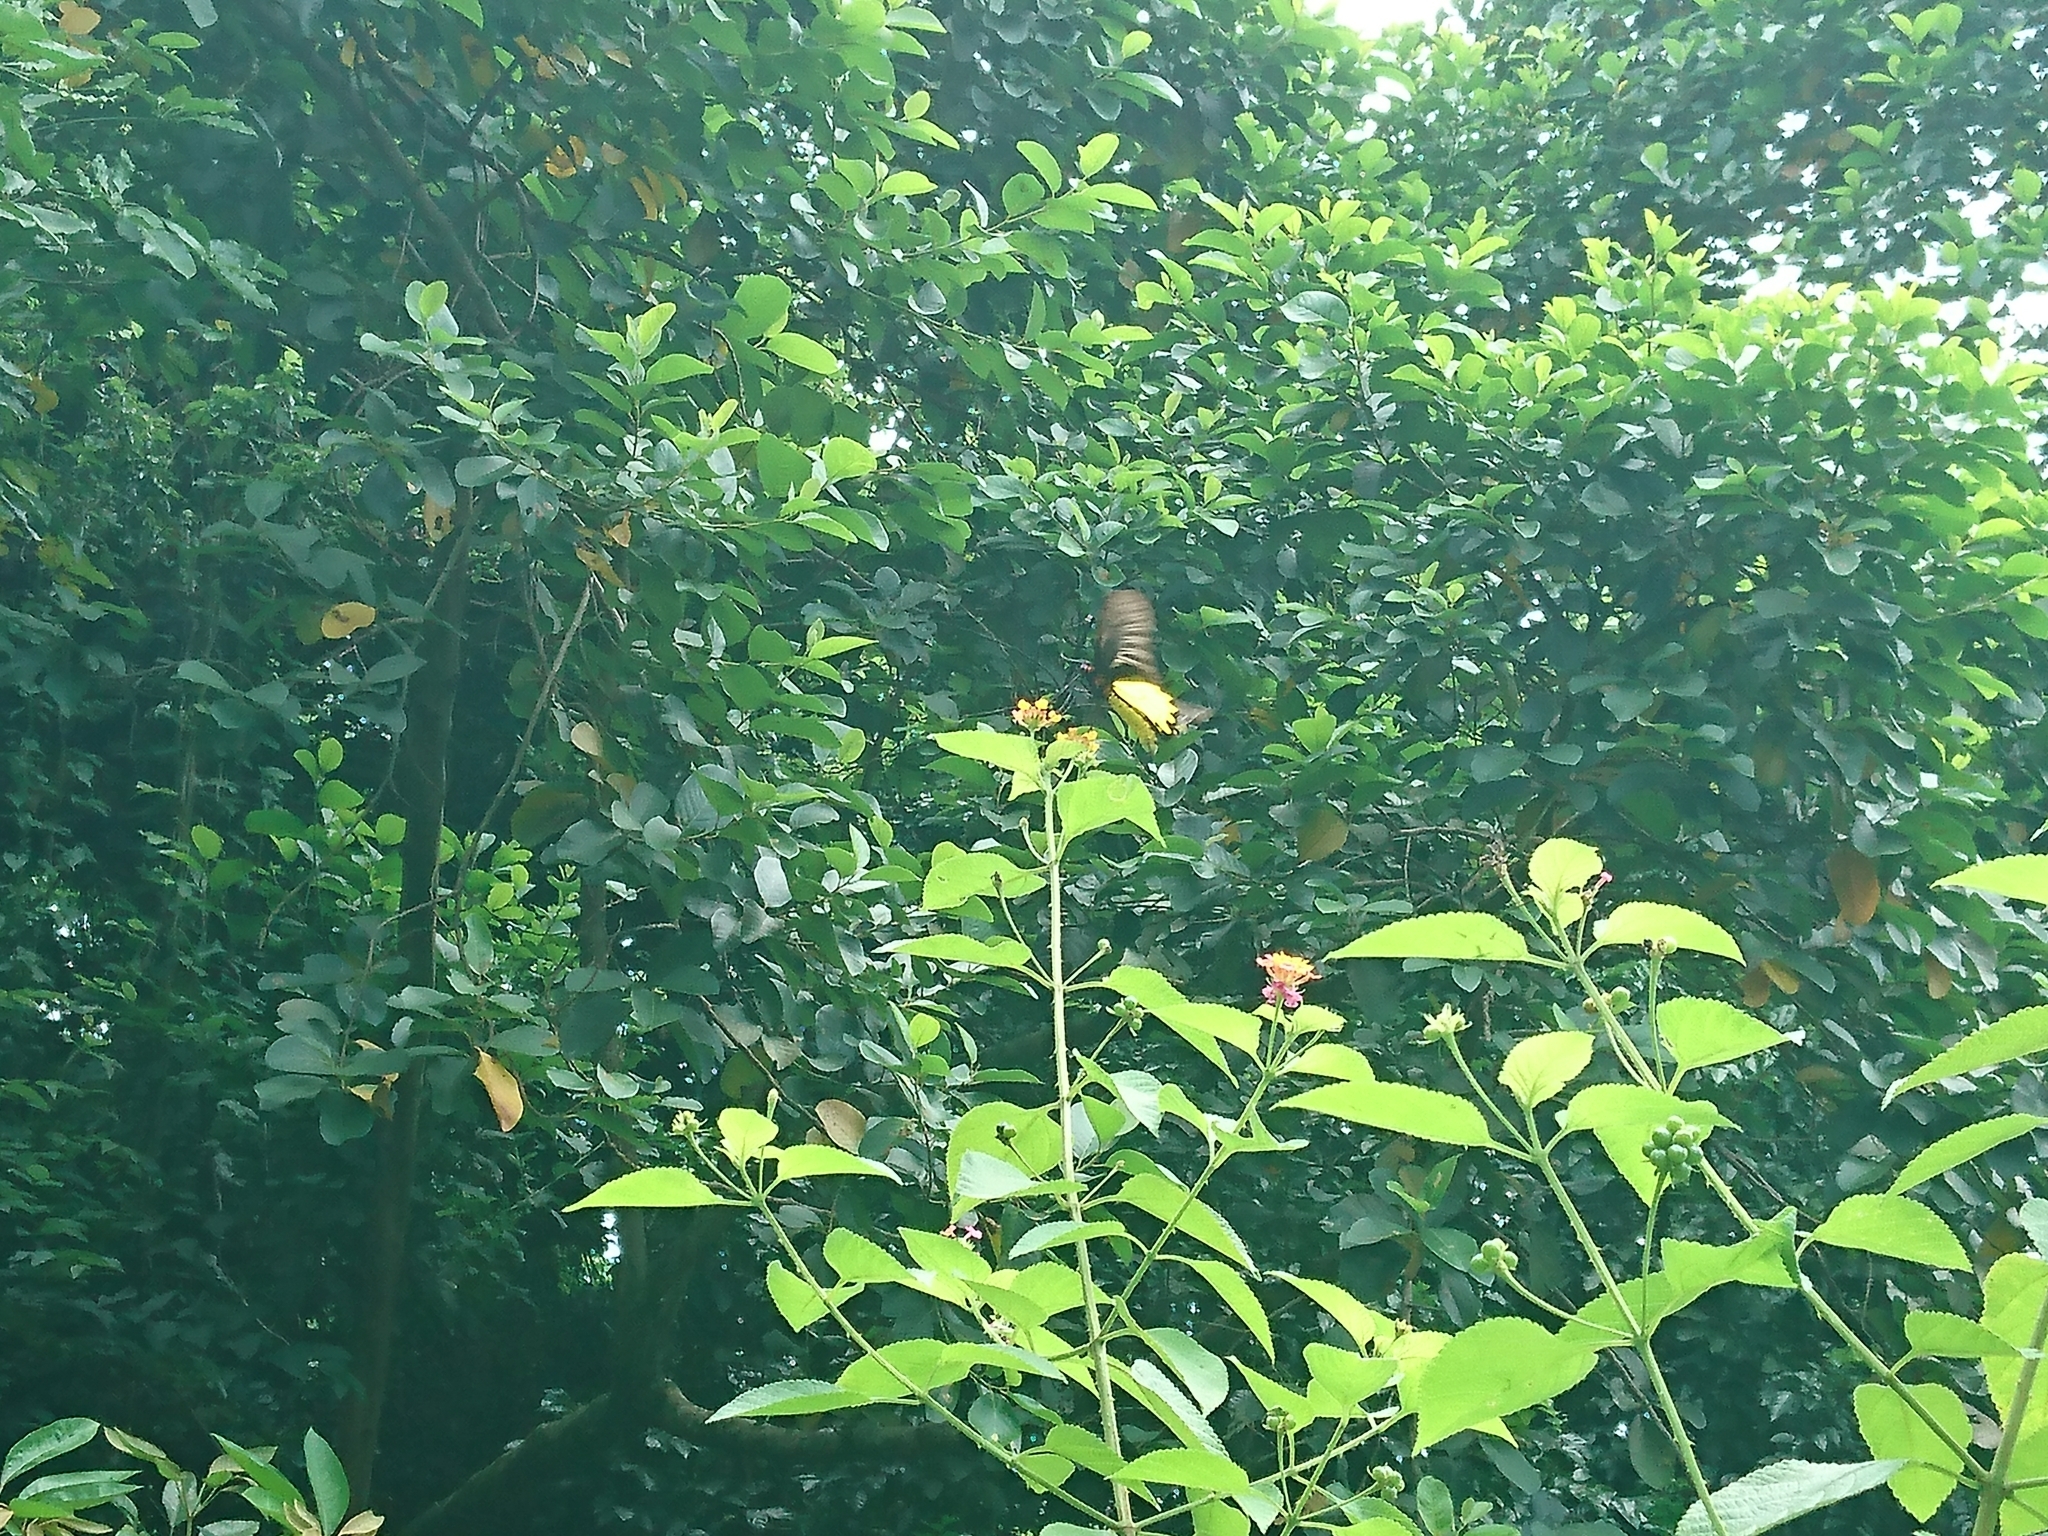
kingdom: Animalia
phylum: Arthropoda
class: Insecta
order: Lepidoptera
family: Papilionidae
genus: Troides
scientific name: Troides helena
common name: Common birdwing
